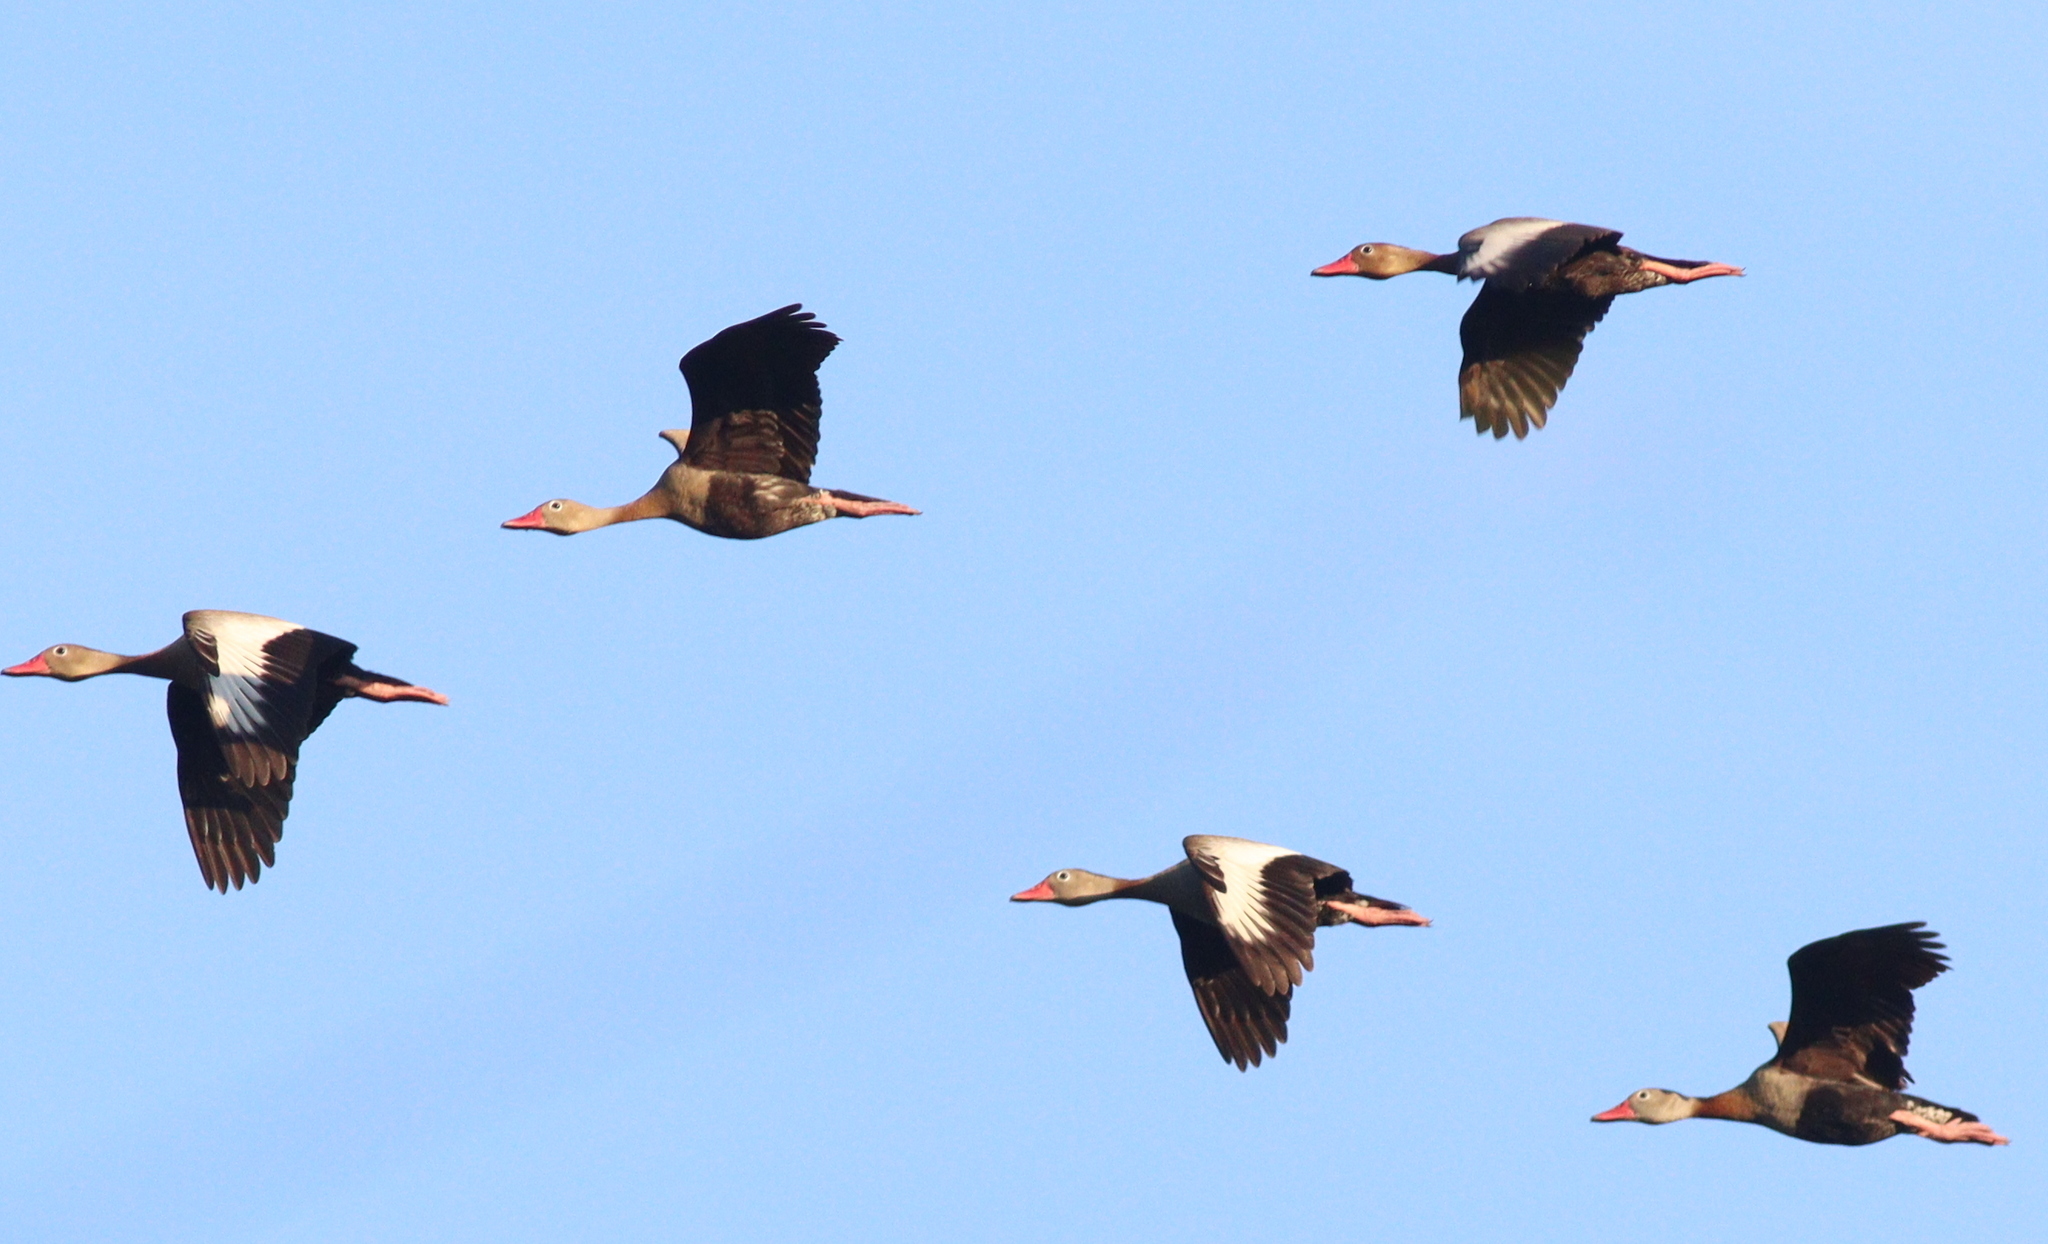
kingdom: Animalia
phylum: Chordata
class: Aves
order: Anseriformes
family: Anatidae
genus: Dendrocygna
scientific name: Dendrocygna autumnalis
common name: Black-bellied whistling duck
